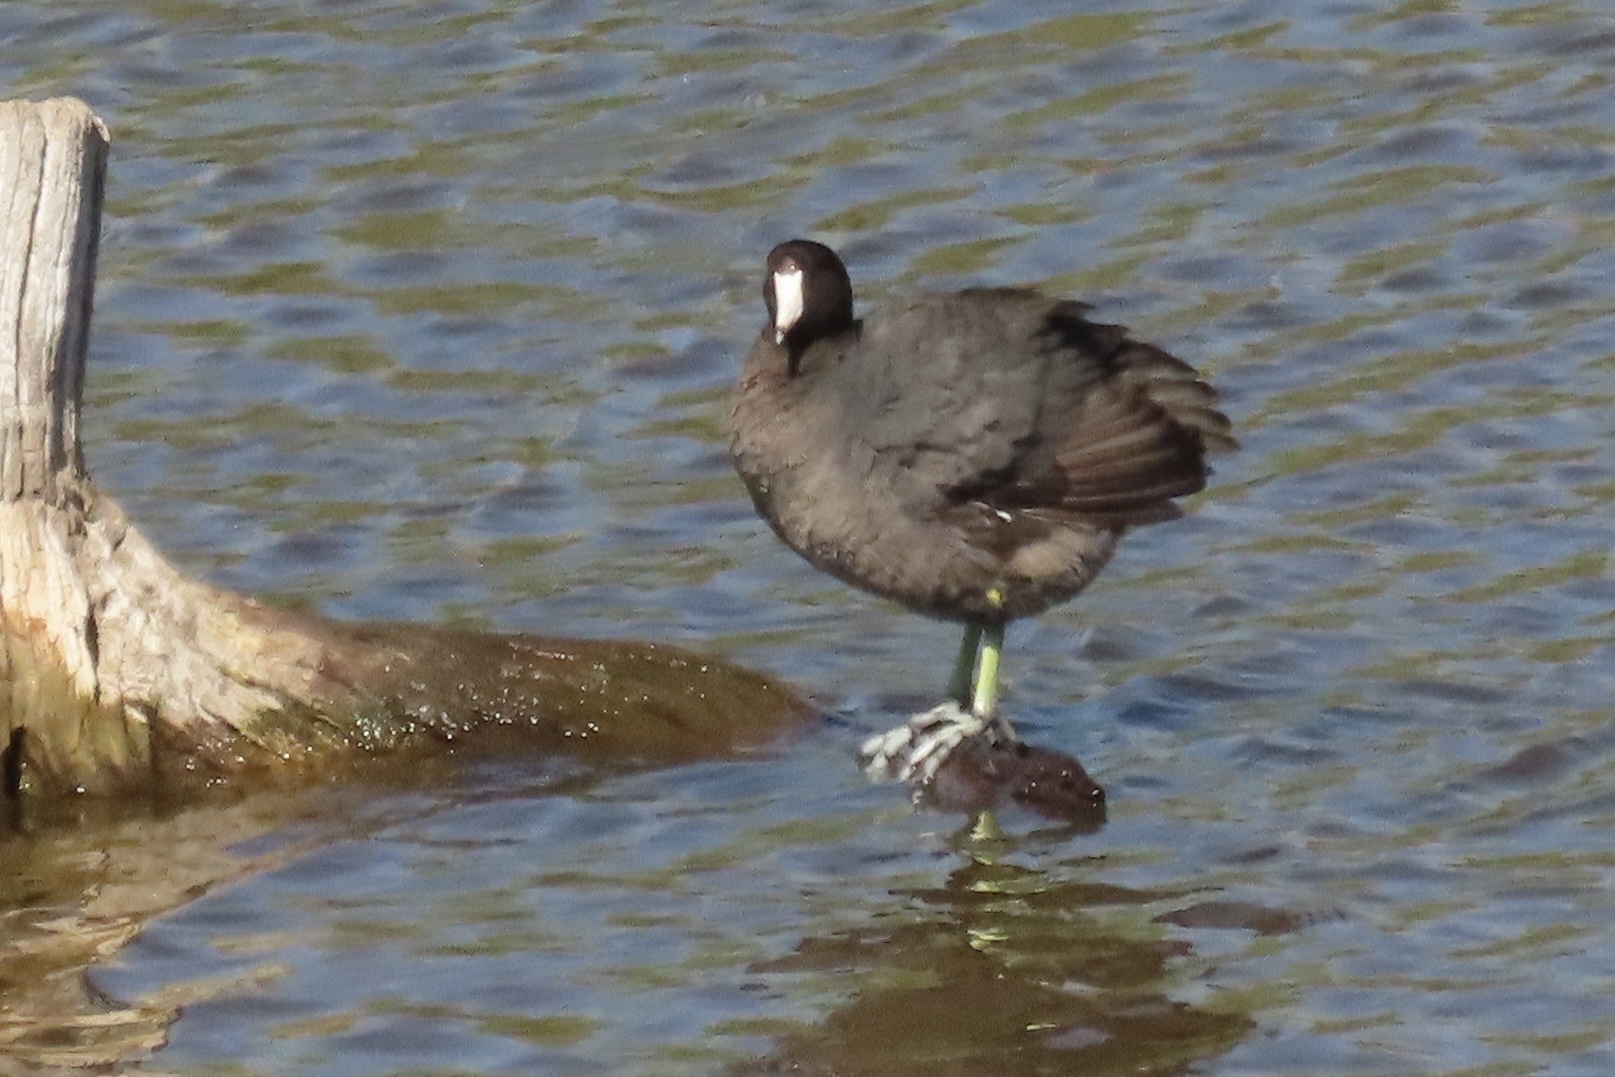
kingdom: Animalia
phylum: Chordata
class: Aves
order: Gruiformes
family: Rallidae
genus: Fulica
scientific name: Fulica americana
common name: American coot
